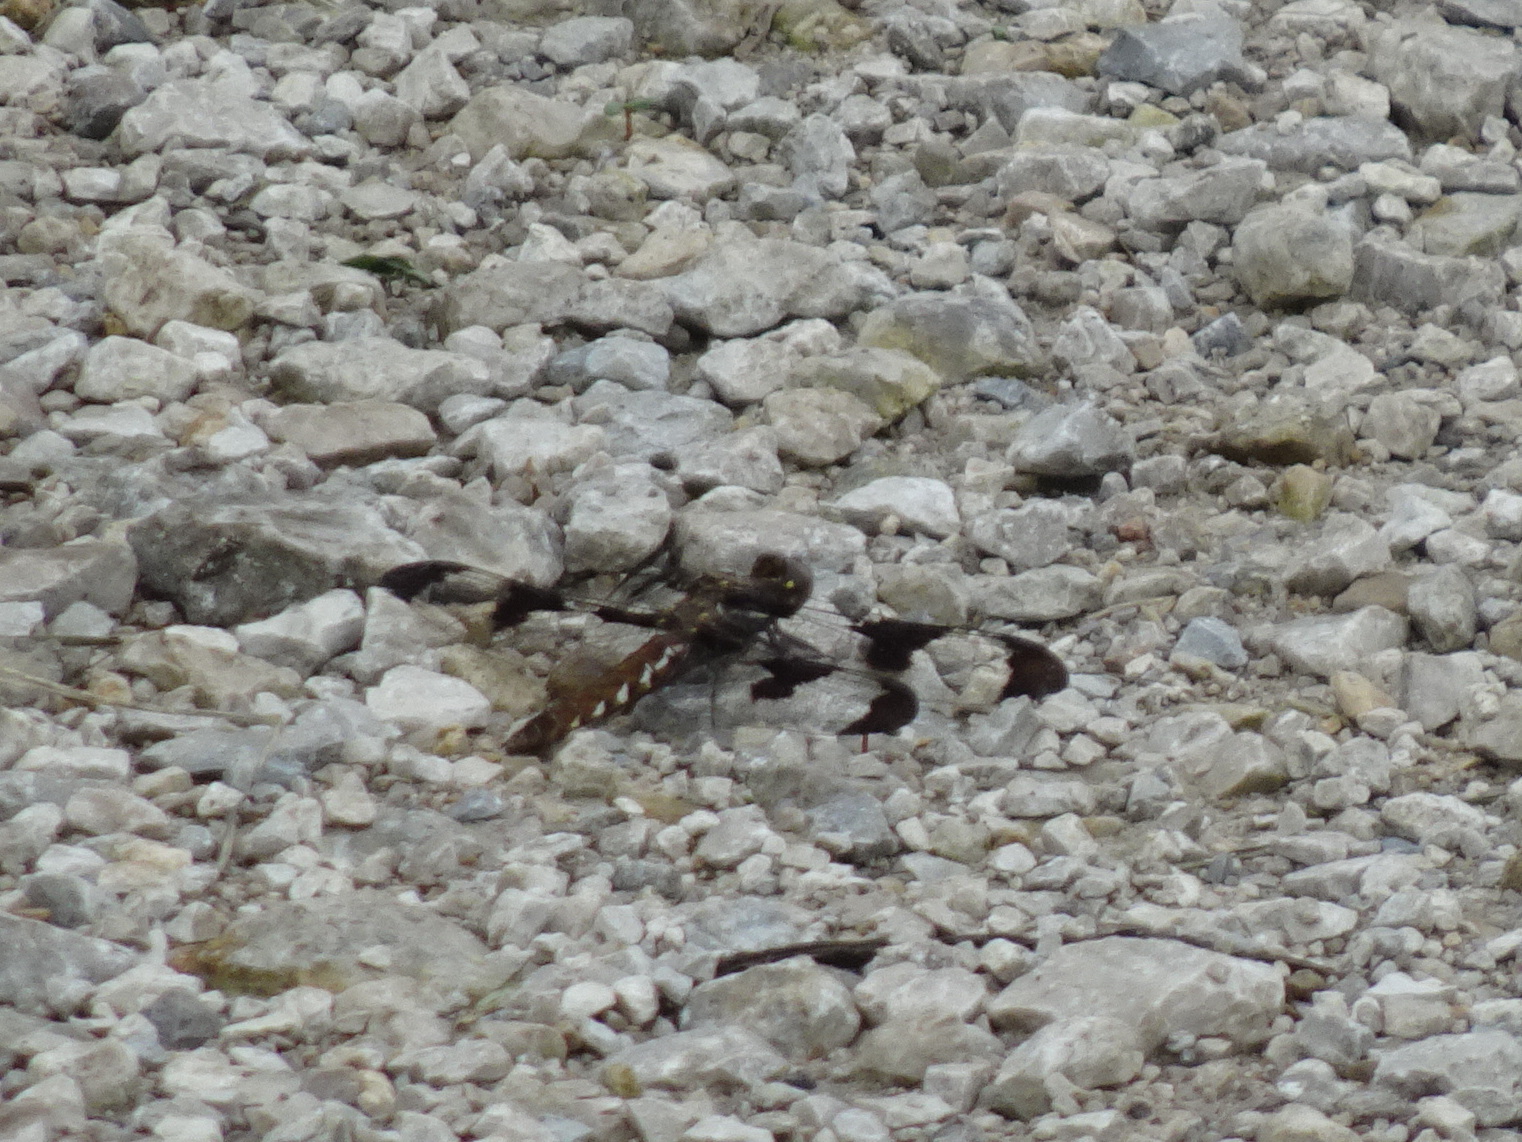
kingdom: Animalia
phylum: Arthropoda
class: Insecta
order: Odonata
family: Libellulidae
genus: Plathemis
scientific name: Plathemis lydia
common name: Common whitetail
